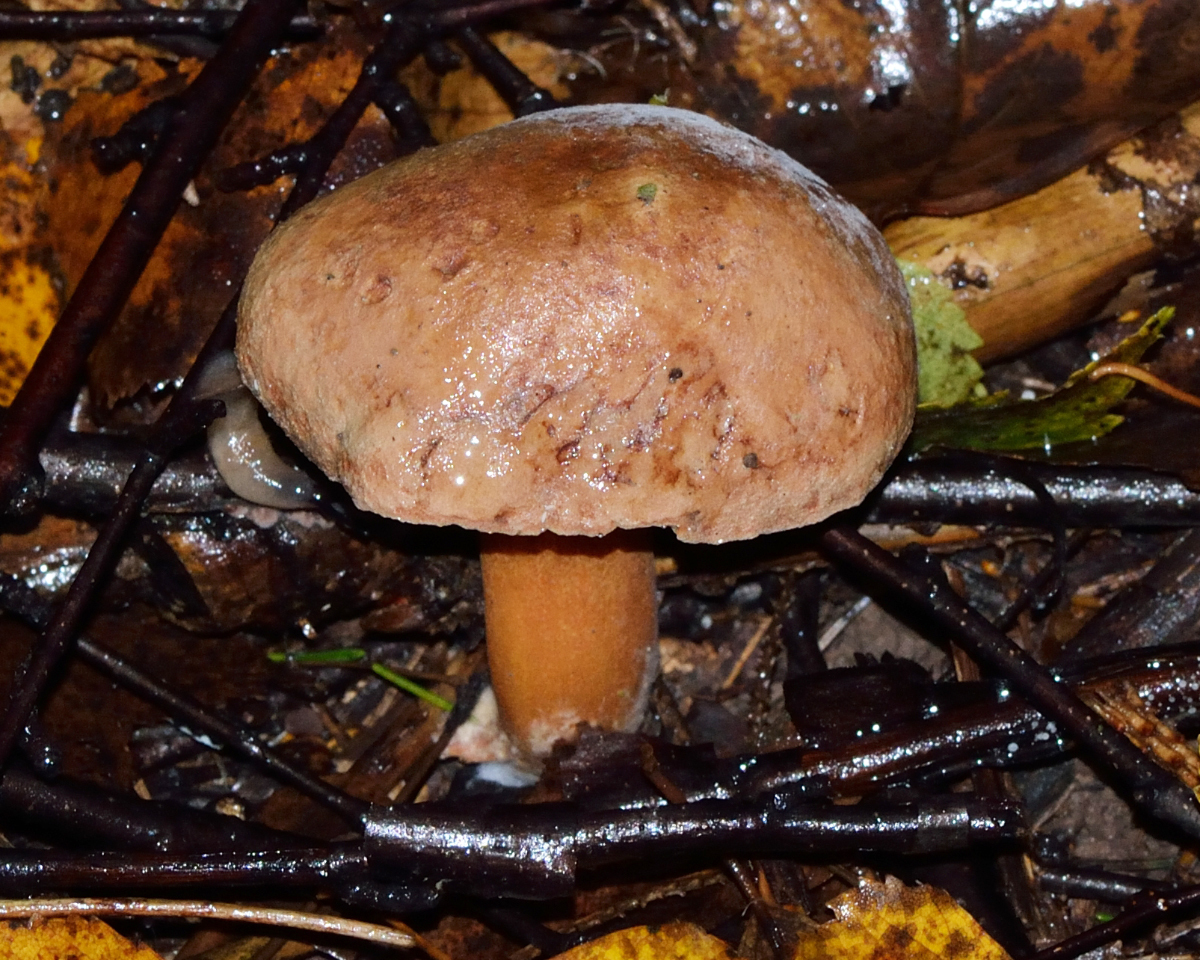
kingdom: Fungi
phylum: Basidiomycota
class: Agaricomycetes
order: Boletales
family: Suillaceae
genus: Suillus
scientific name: Suillus bovinus
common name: Bovine bolete
